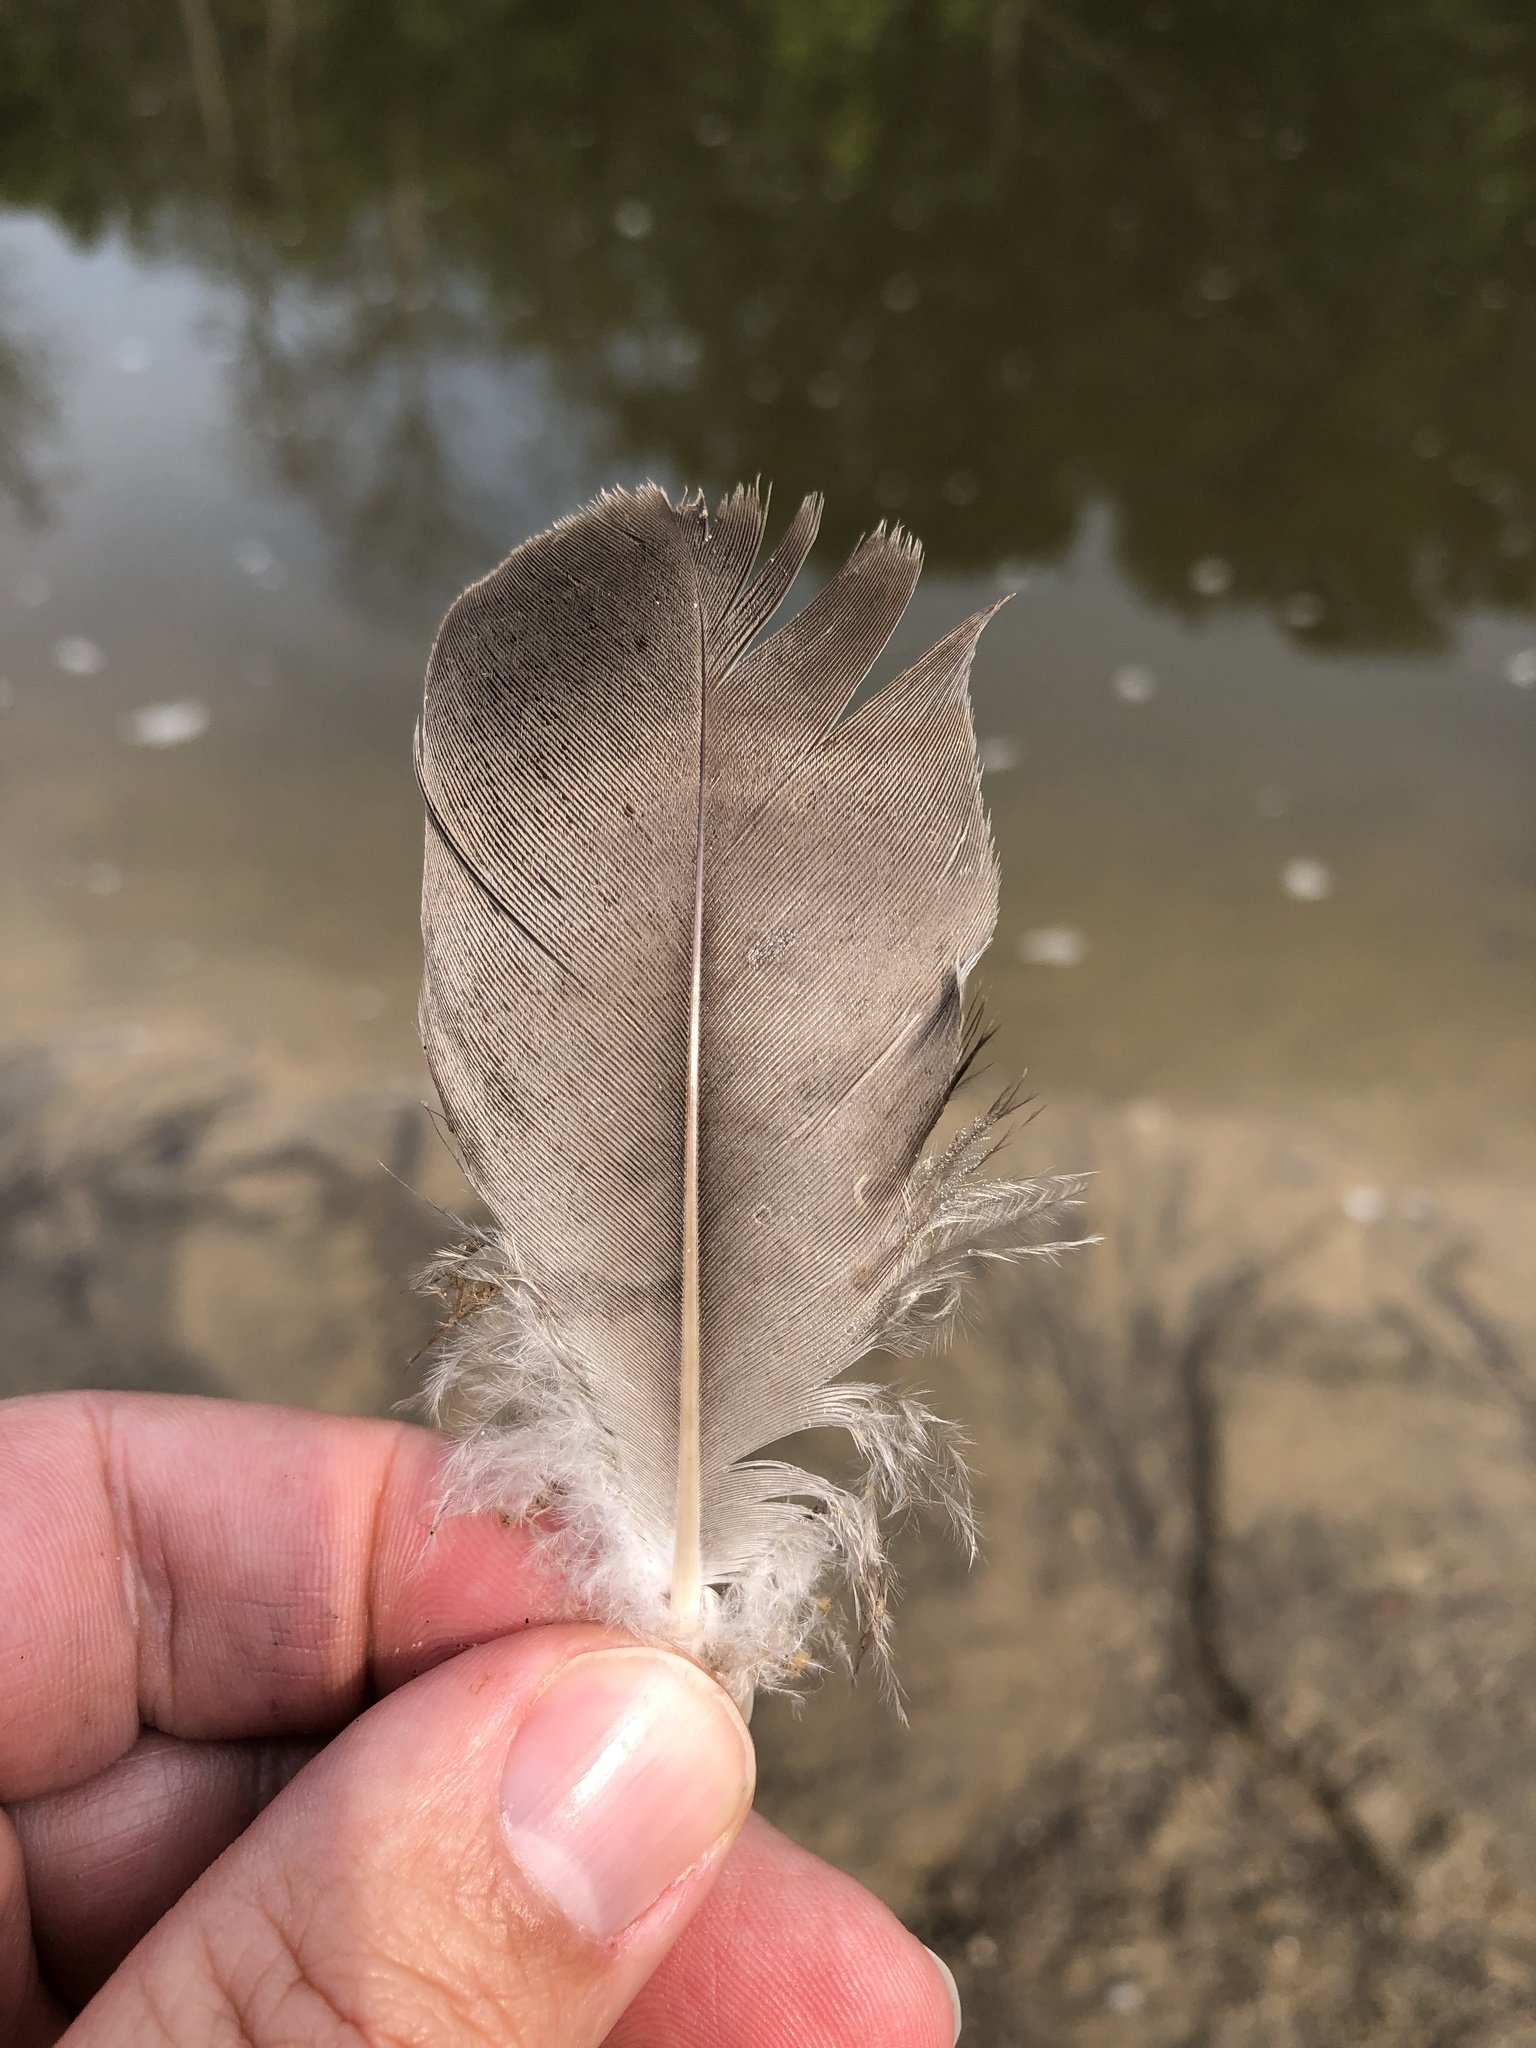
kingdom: Animalia
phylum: Chordata
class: Aves
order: Anseriformes
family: Anatidae
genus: Branta
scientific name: Branta canadensis
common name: Canada goose
